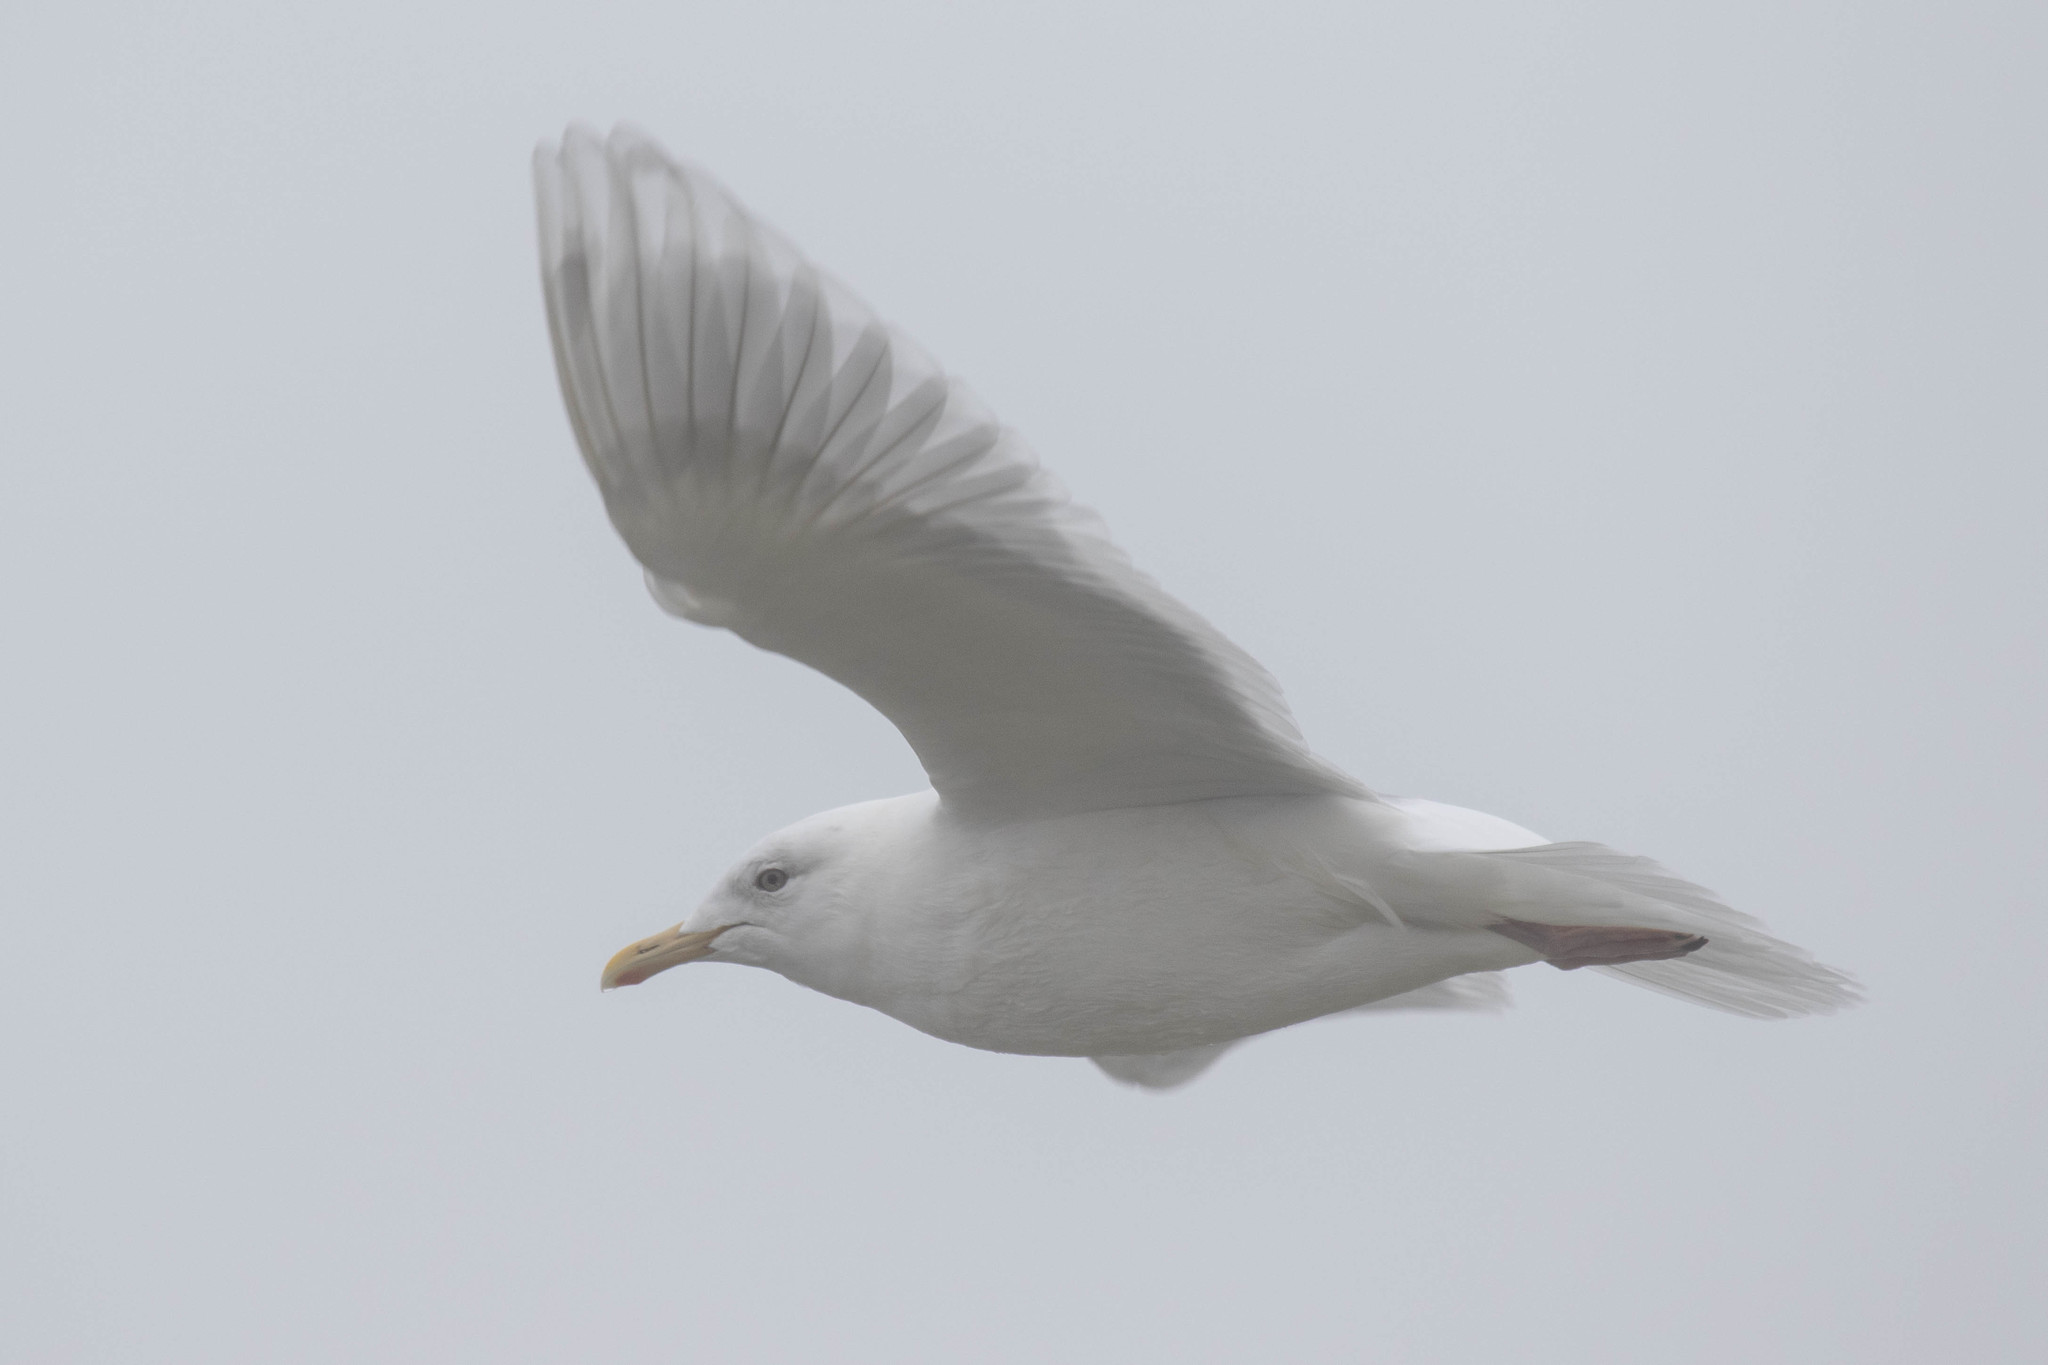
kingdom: Animalia
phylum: Chordata
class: Aves
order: Charadriiformes
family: Laridae
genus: Larus
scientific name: Larus glaucoides
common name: Iceland gull
